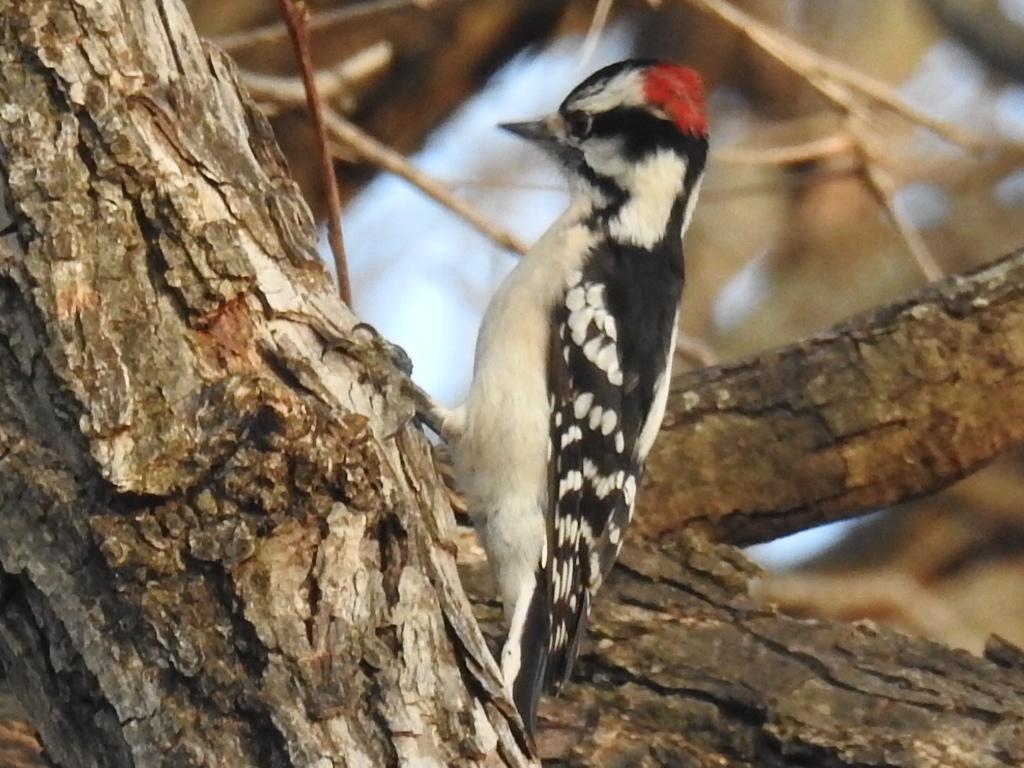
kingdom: Animalia
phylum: Chordata
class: Aves
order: Piciformes
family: Picidae
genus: Dryobates
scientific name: Dryobates pubescens
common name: Downy woodpecker
